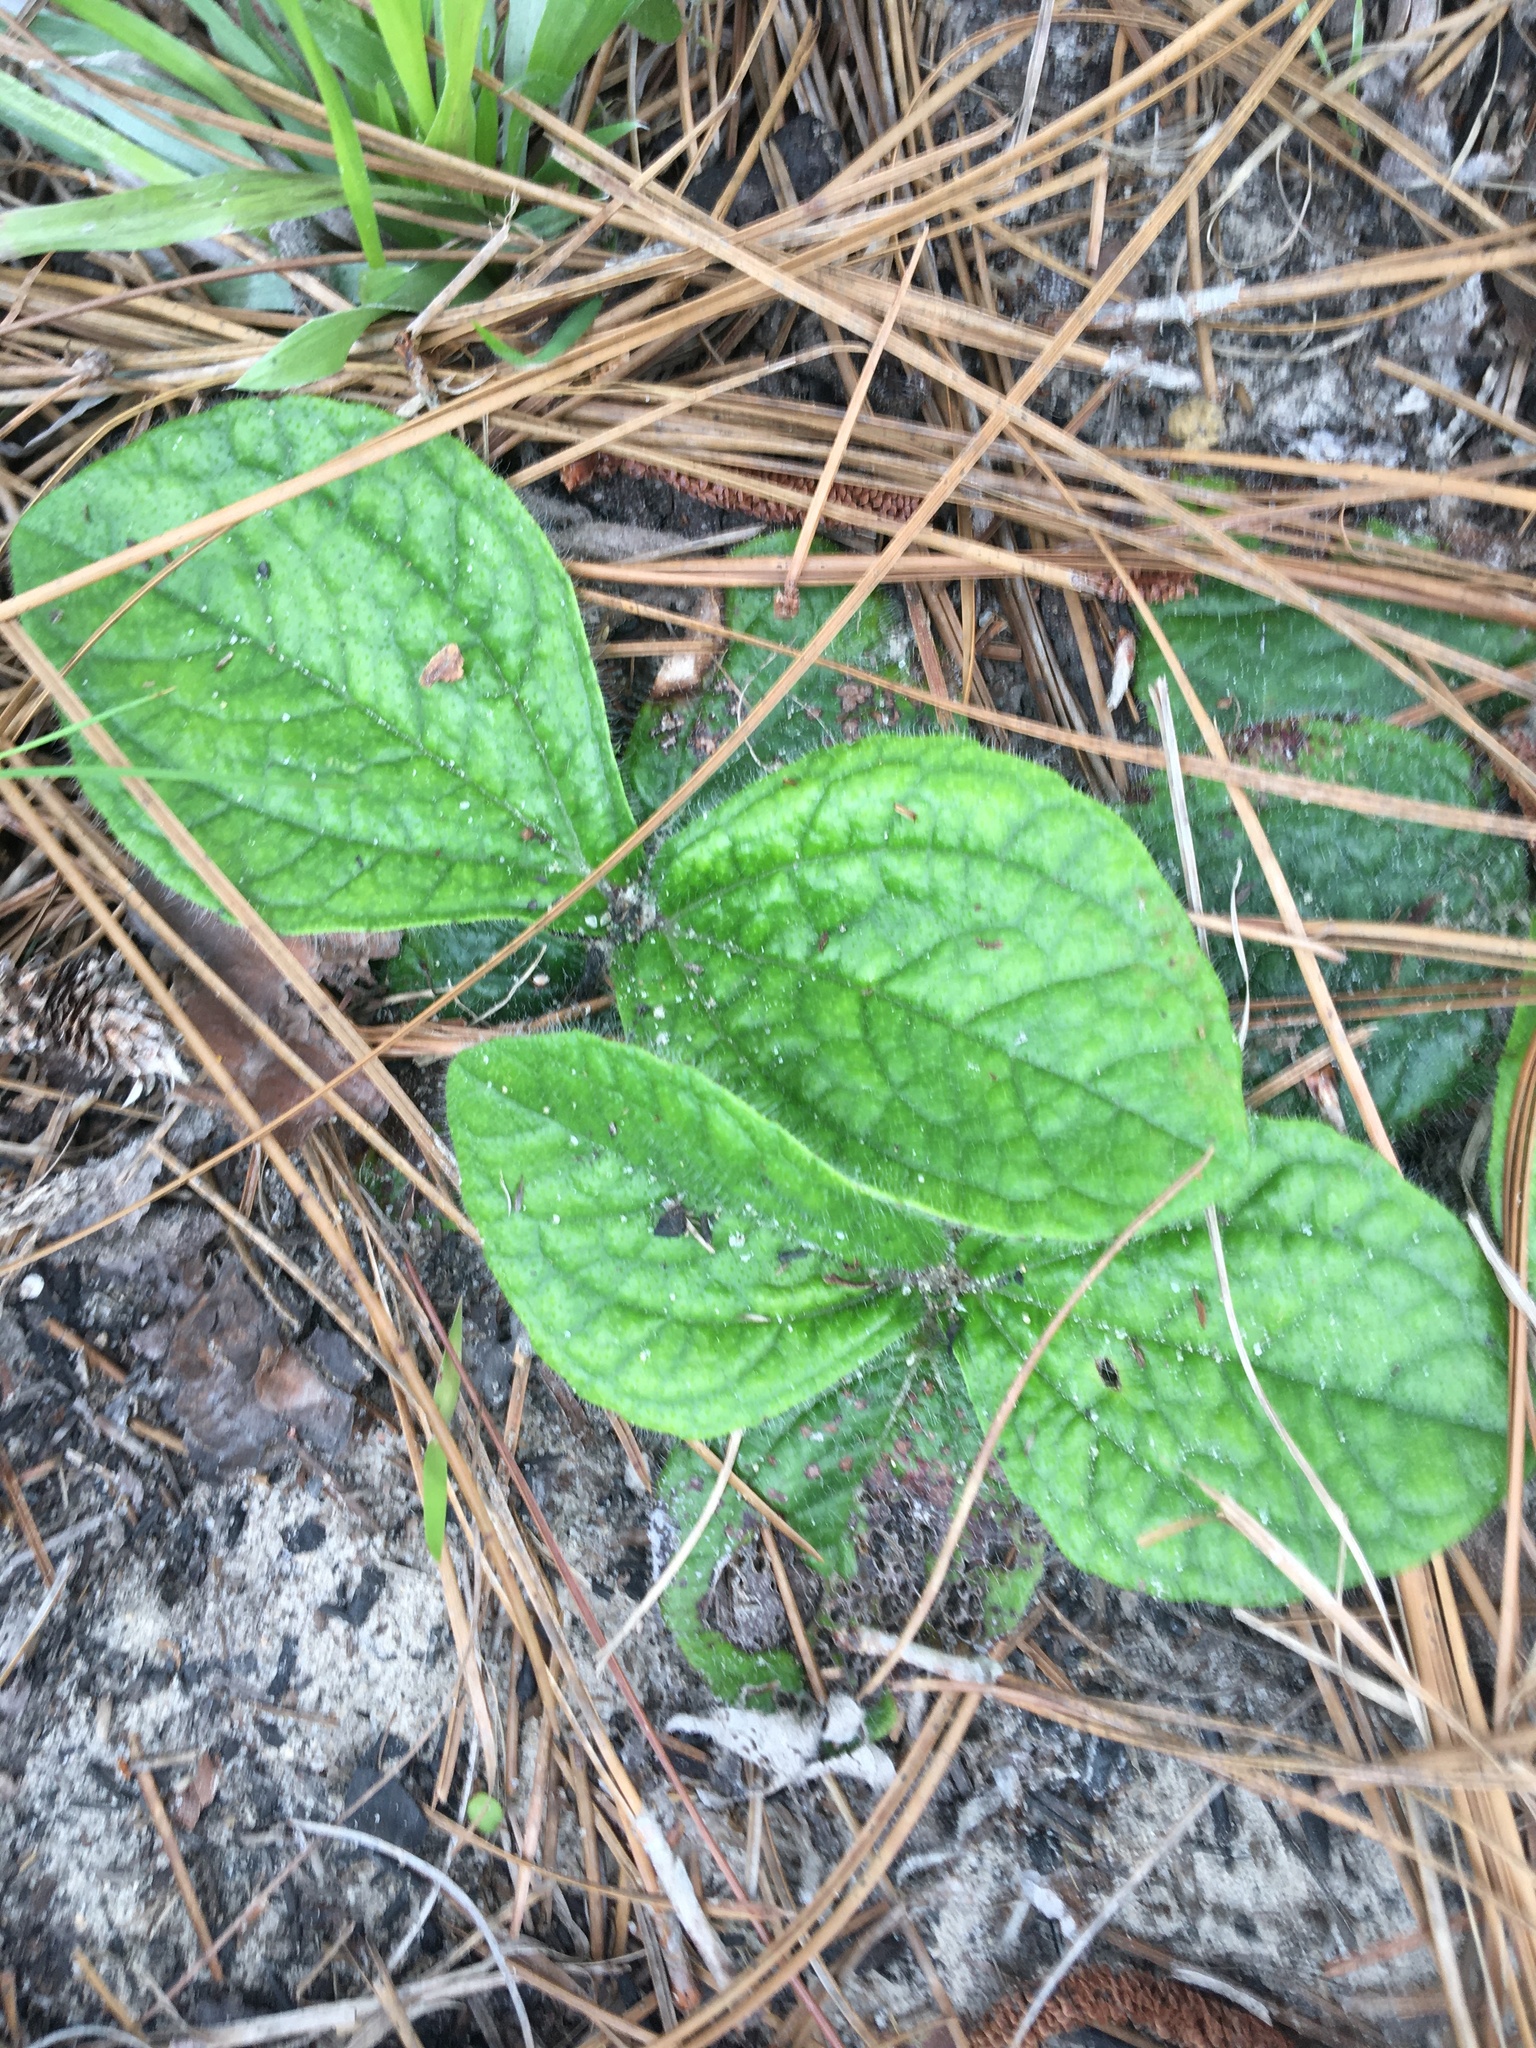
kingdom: Plantae
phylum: Tracheophyta
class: Magnoliopsida
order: Asterales
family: Asteraceae
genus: Helianthus
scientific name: Helianthus radula
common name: Pineland sunflower
